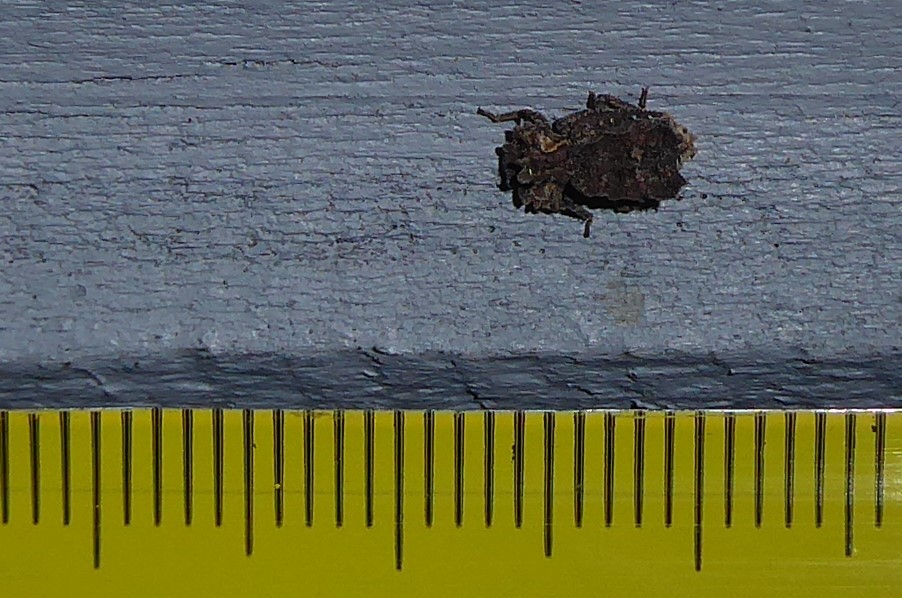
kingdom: Animalia
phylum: Arthropoda
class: Insecta
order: Coleoptera
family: Zopheridae
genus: Tarphiomimus
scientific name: Tarphiomimus
